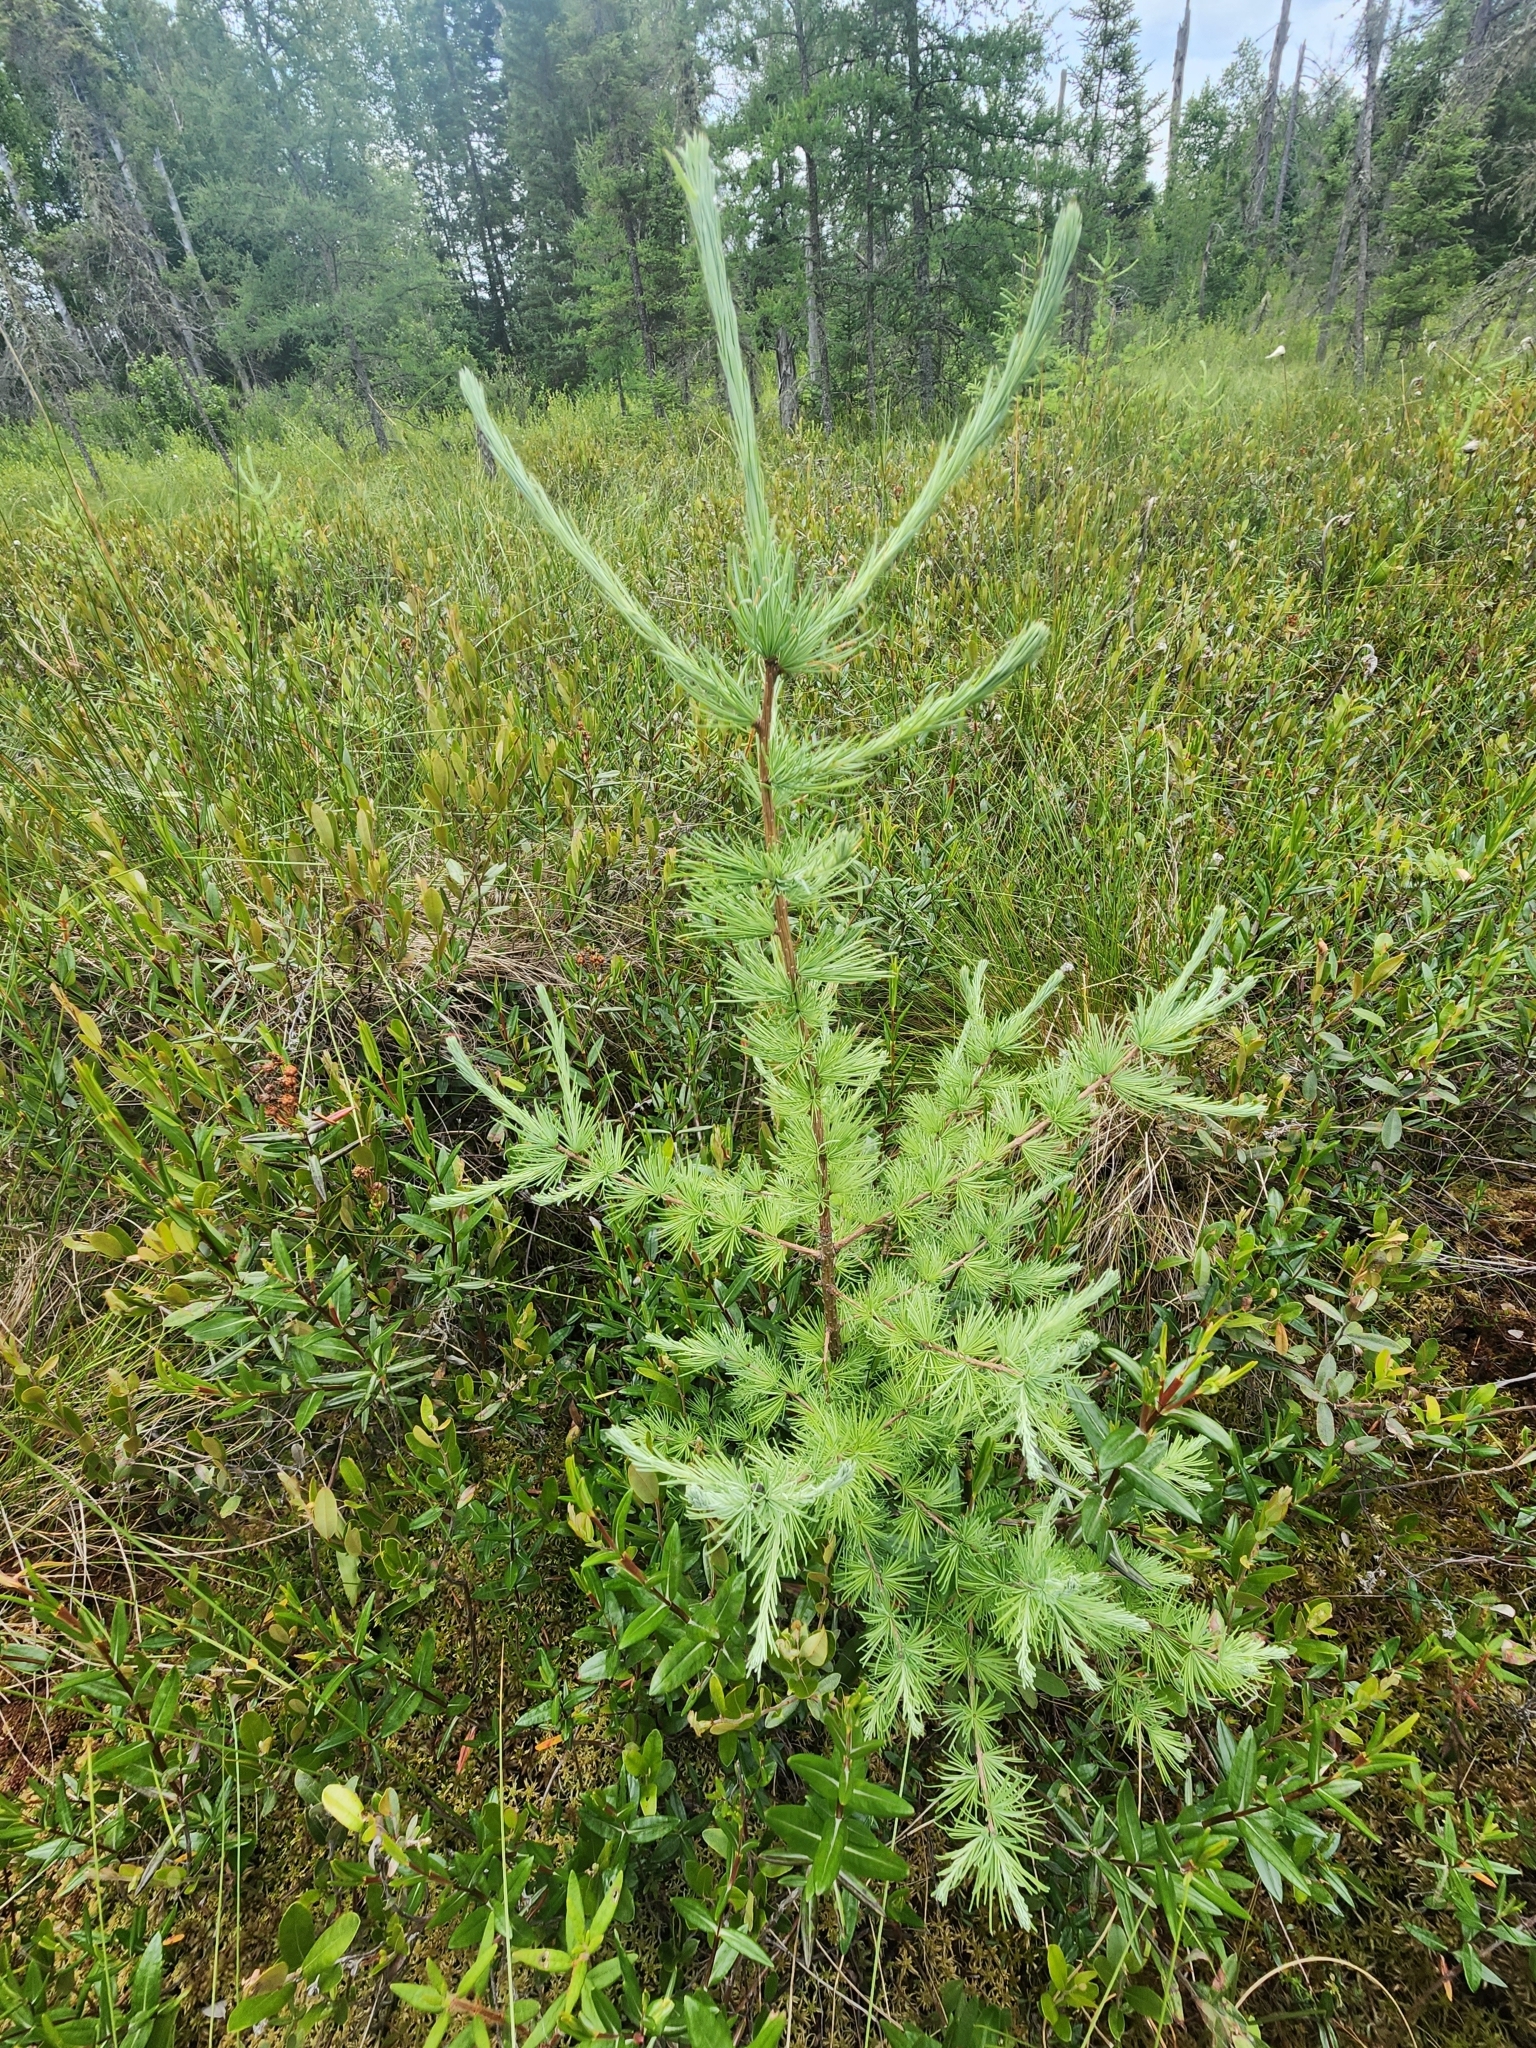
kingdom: Plantae
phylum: Tracheophyta
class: Pinopsida
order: Pinales
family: Pinaceae
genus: Larix
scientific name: Larix laricina
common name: American larch
